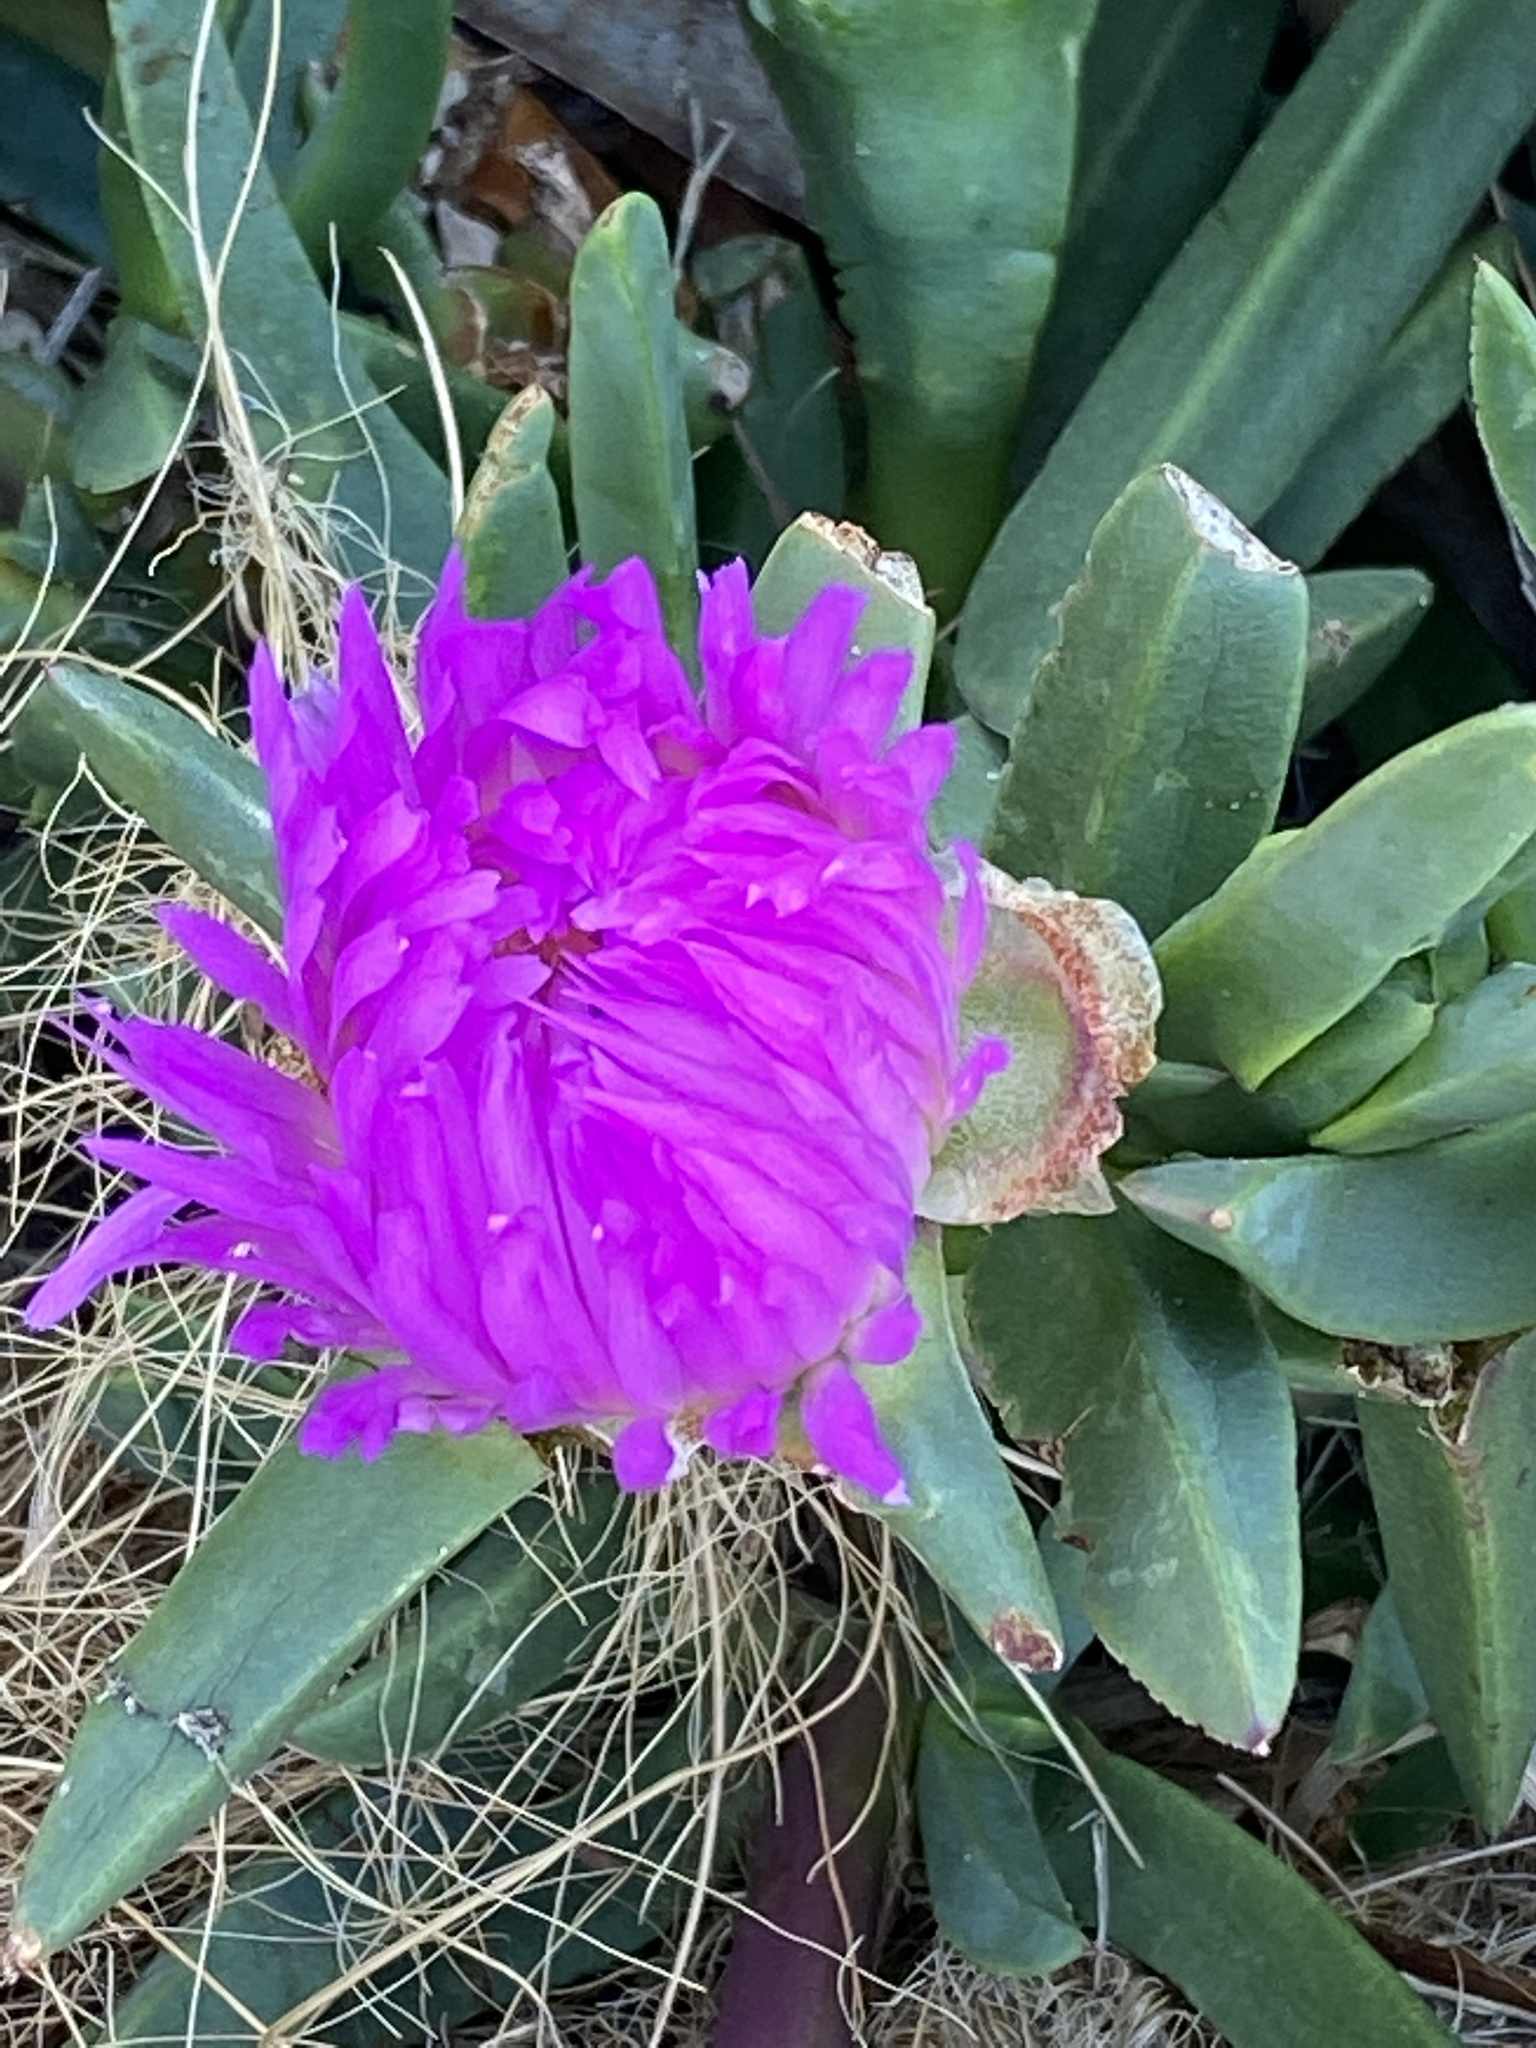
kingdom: Plantae
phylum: Tracheophyta
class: Magnoliopsida
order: Caryophyllales
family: Aizoaceae
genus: Carpobrotus
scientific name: Carpobrotus chilensis
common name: Sea fig
